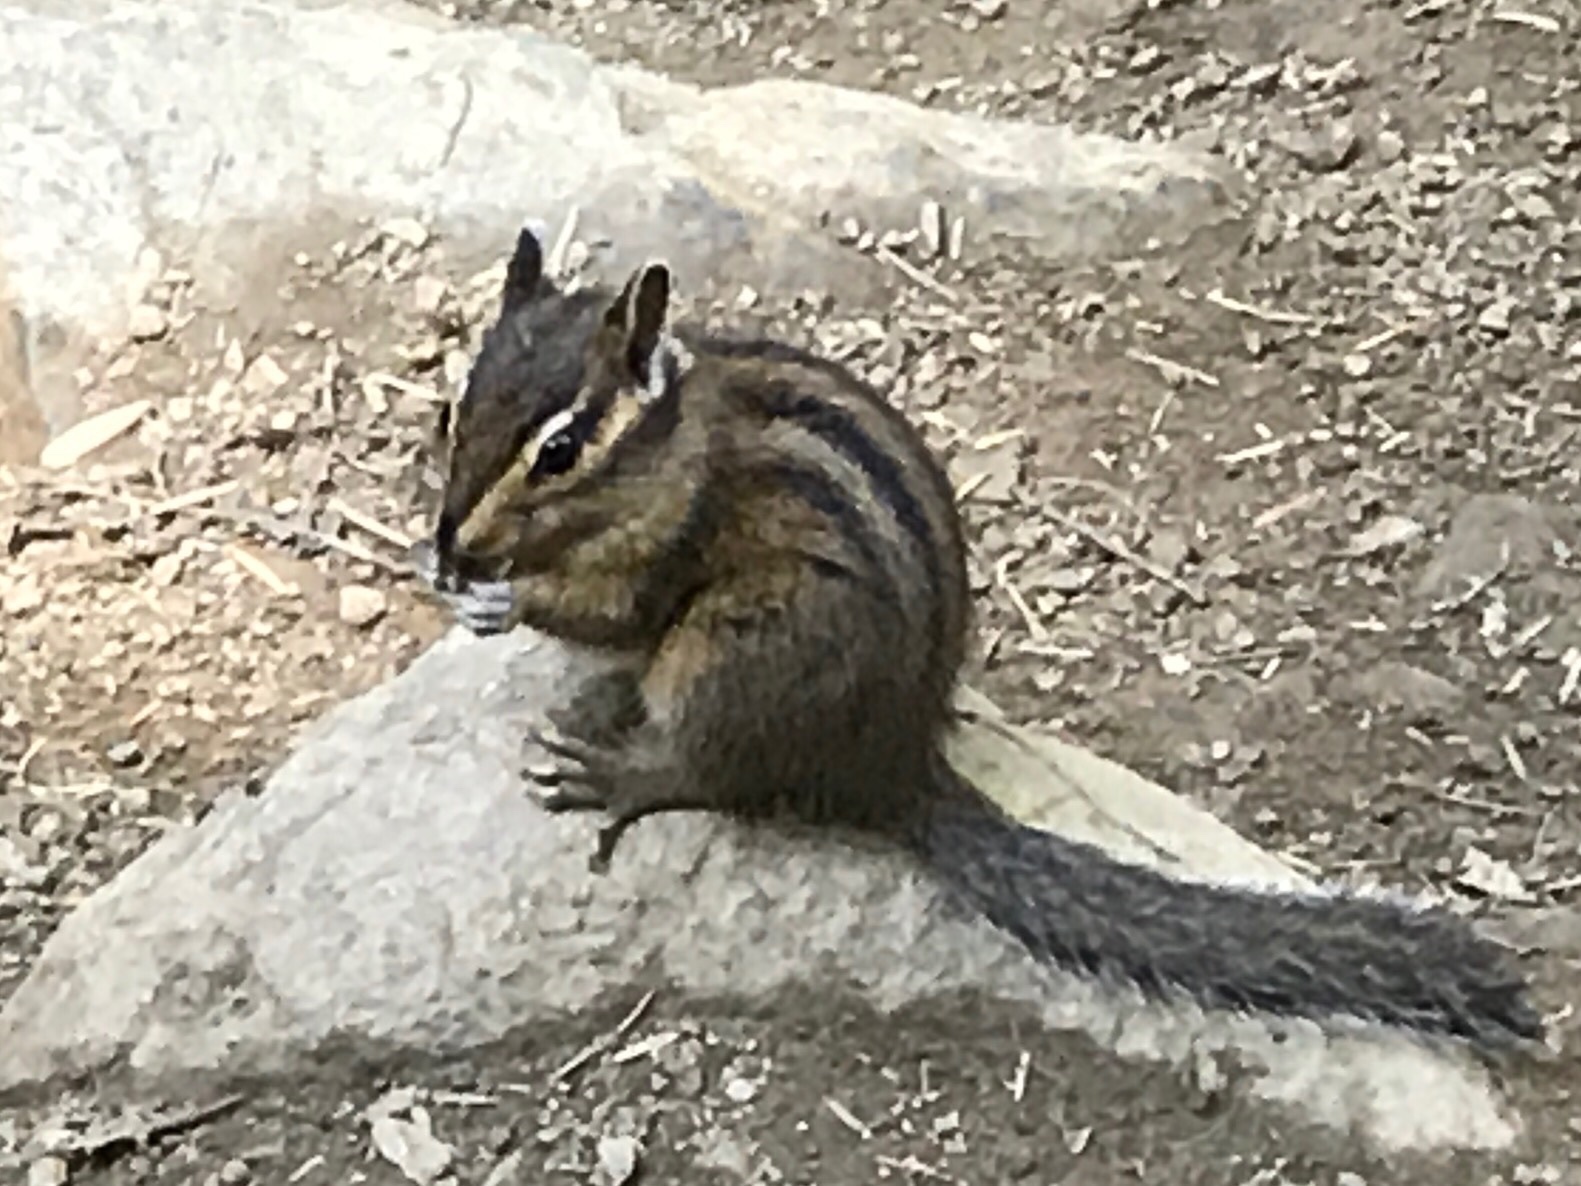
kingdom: Animalia
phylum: Chordata
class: Mammalia
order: Rodentia
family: Sciuridae
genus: Tamias
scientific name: Tamias townsendii
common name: Townsend's chipmunk
